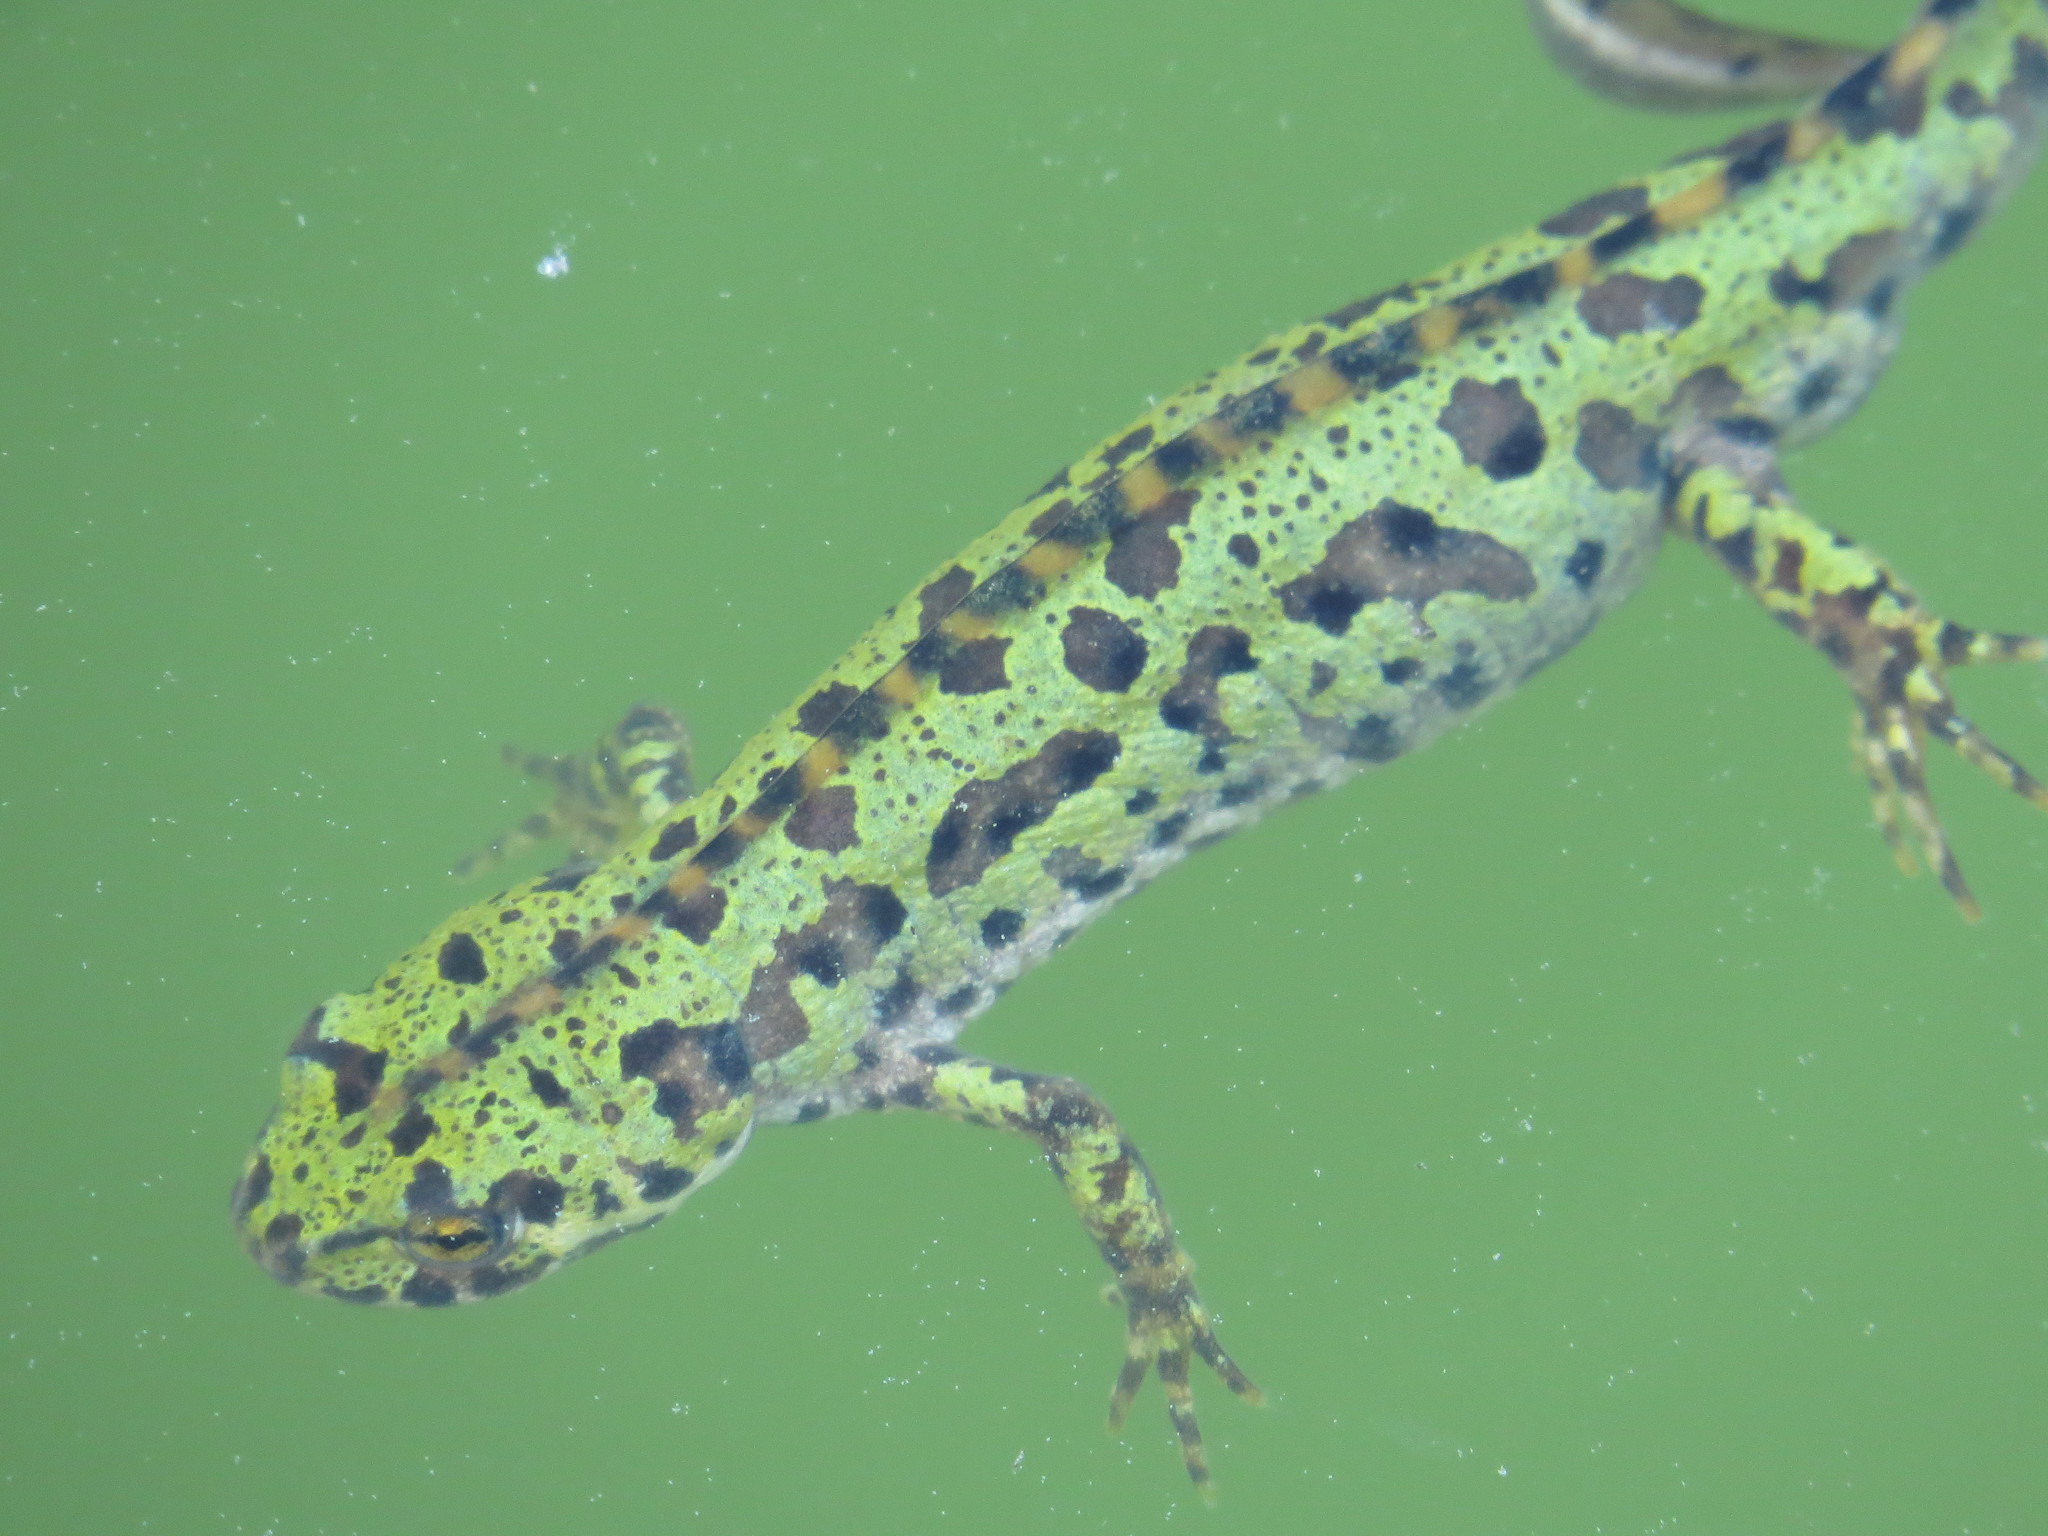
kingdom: Animalia
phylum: Chordata
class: Amphibia
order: Caudata
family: Salamandridae
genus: Triturus
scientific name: Triturus pygmaeus
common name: Southern marbled newt
